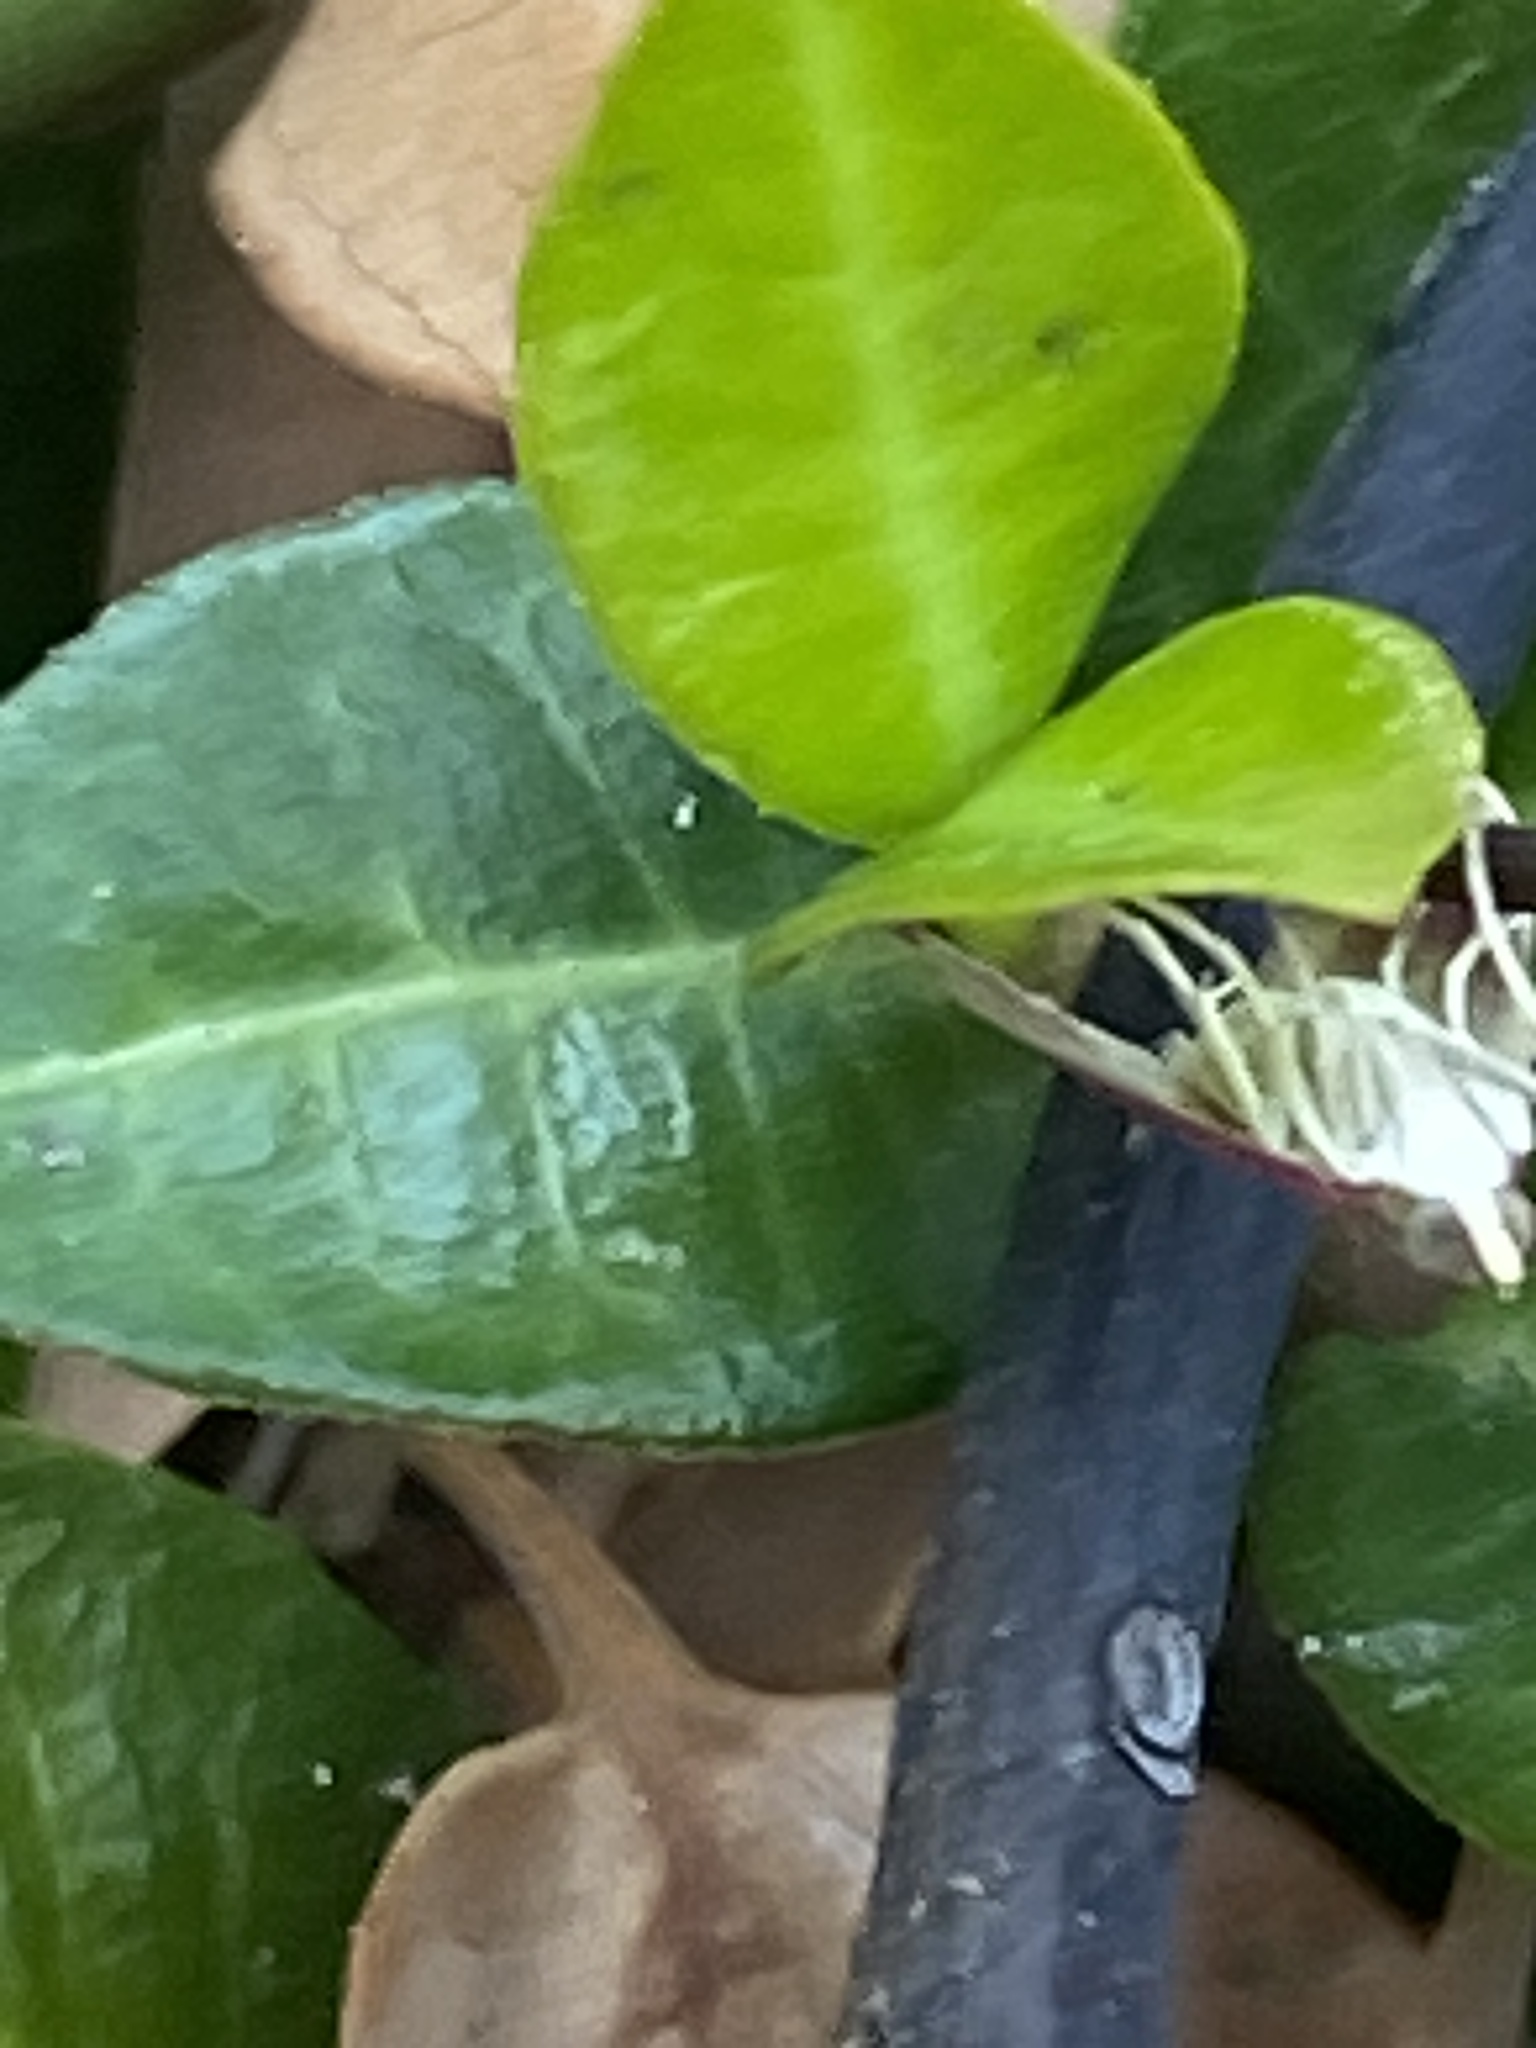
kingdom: Animalia
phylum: Arthropoda
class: Insecta
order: Lepidoptera
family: Crambidae
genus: Pyrausta
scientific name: Pyrausta volupialis
